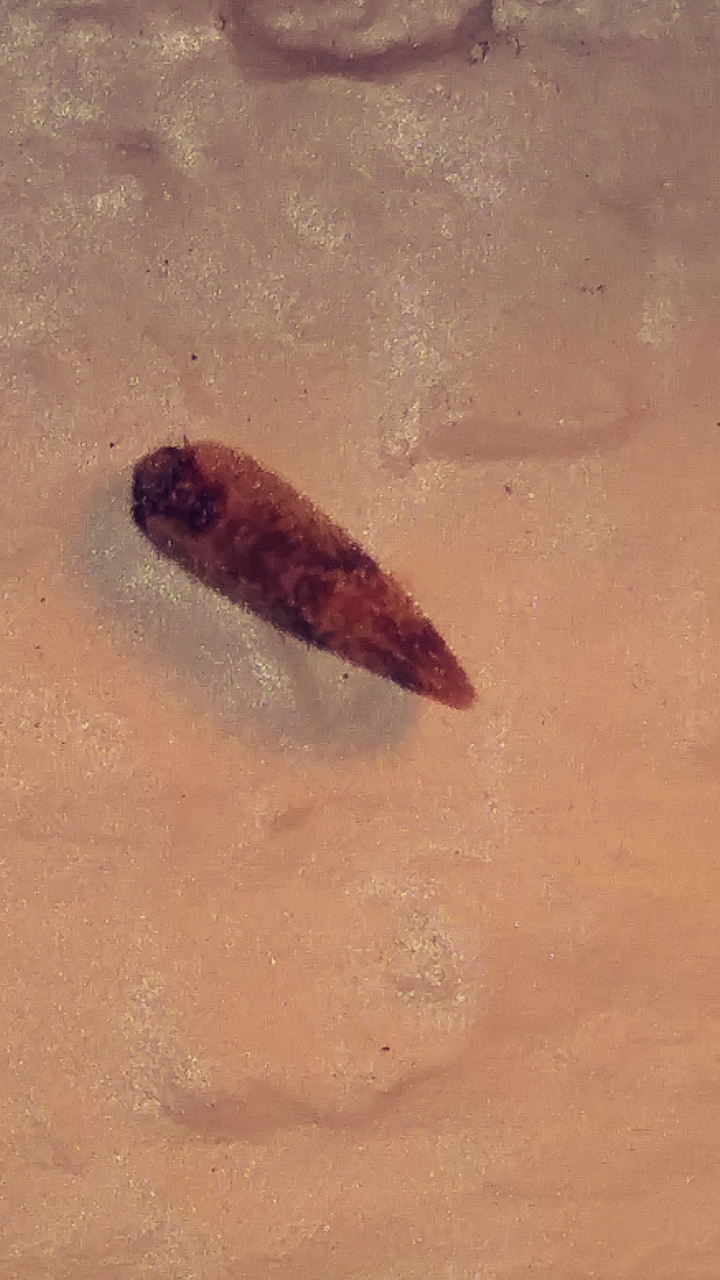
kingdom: Animalia
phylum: Arthropoda
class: Insecta
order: Neuroptera
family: Hemerobiidae
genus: Megalomus
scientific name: Megalomus fidelis
